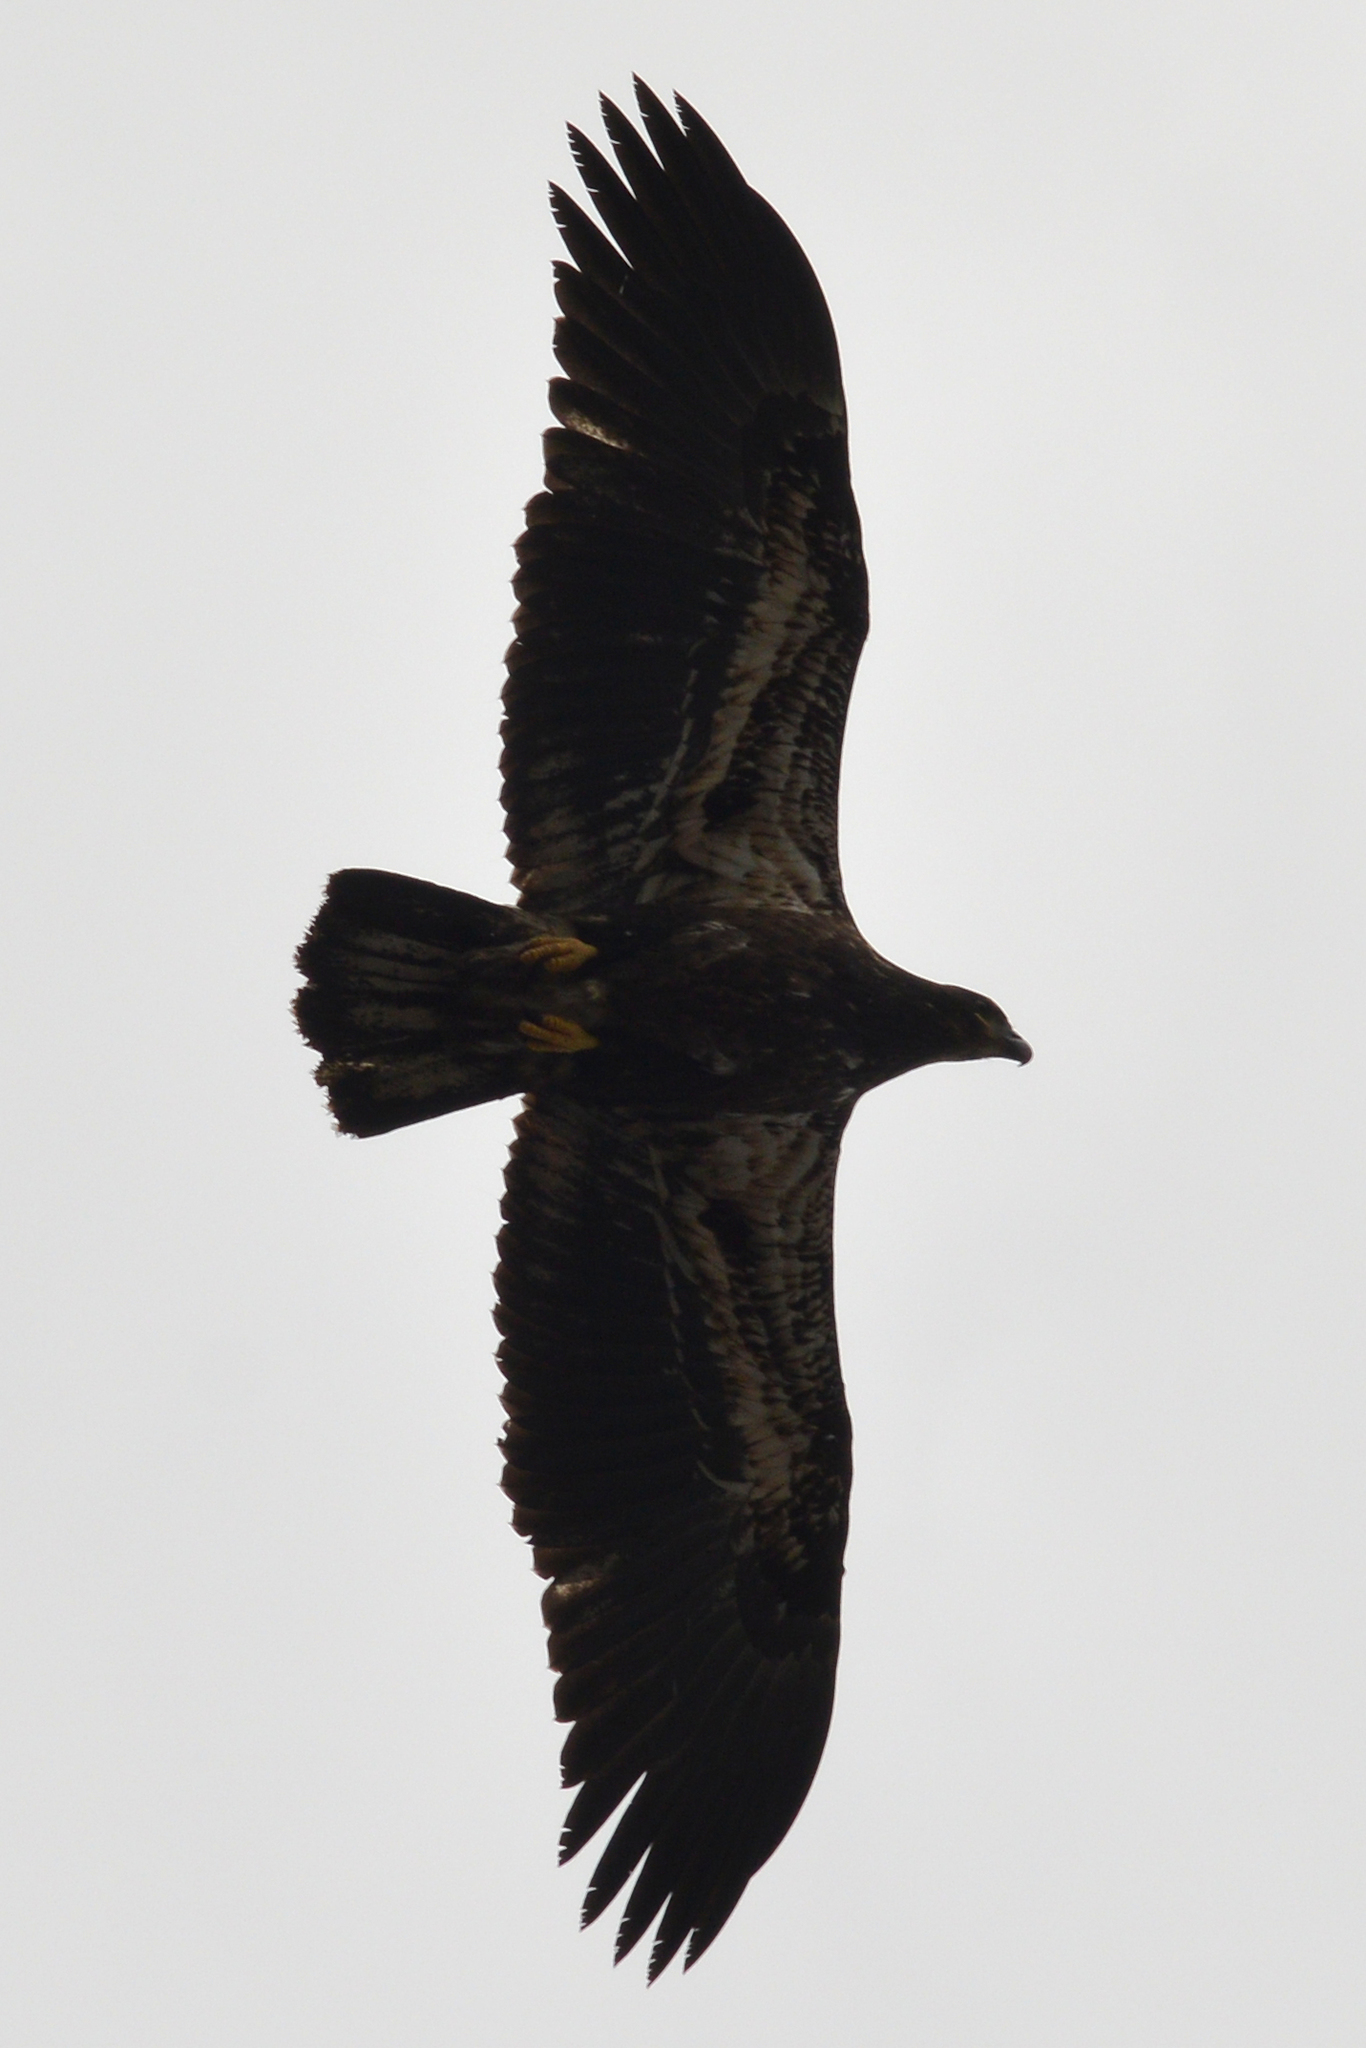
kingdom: Animalia
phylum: Chordata
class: Aves
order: Accipitriformes
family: Accipitridae
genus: Haliaeetus
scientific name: Haliaeetus leucocephalus
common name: Bald eagle
